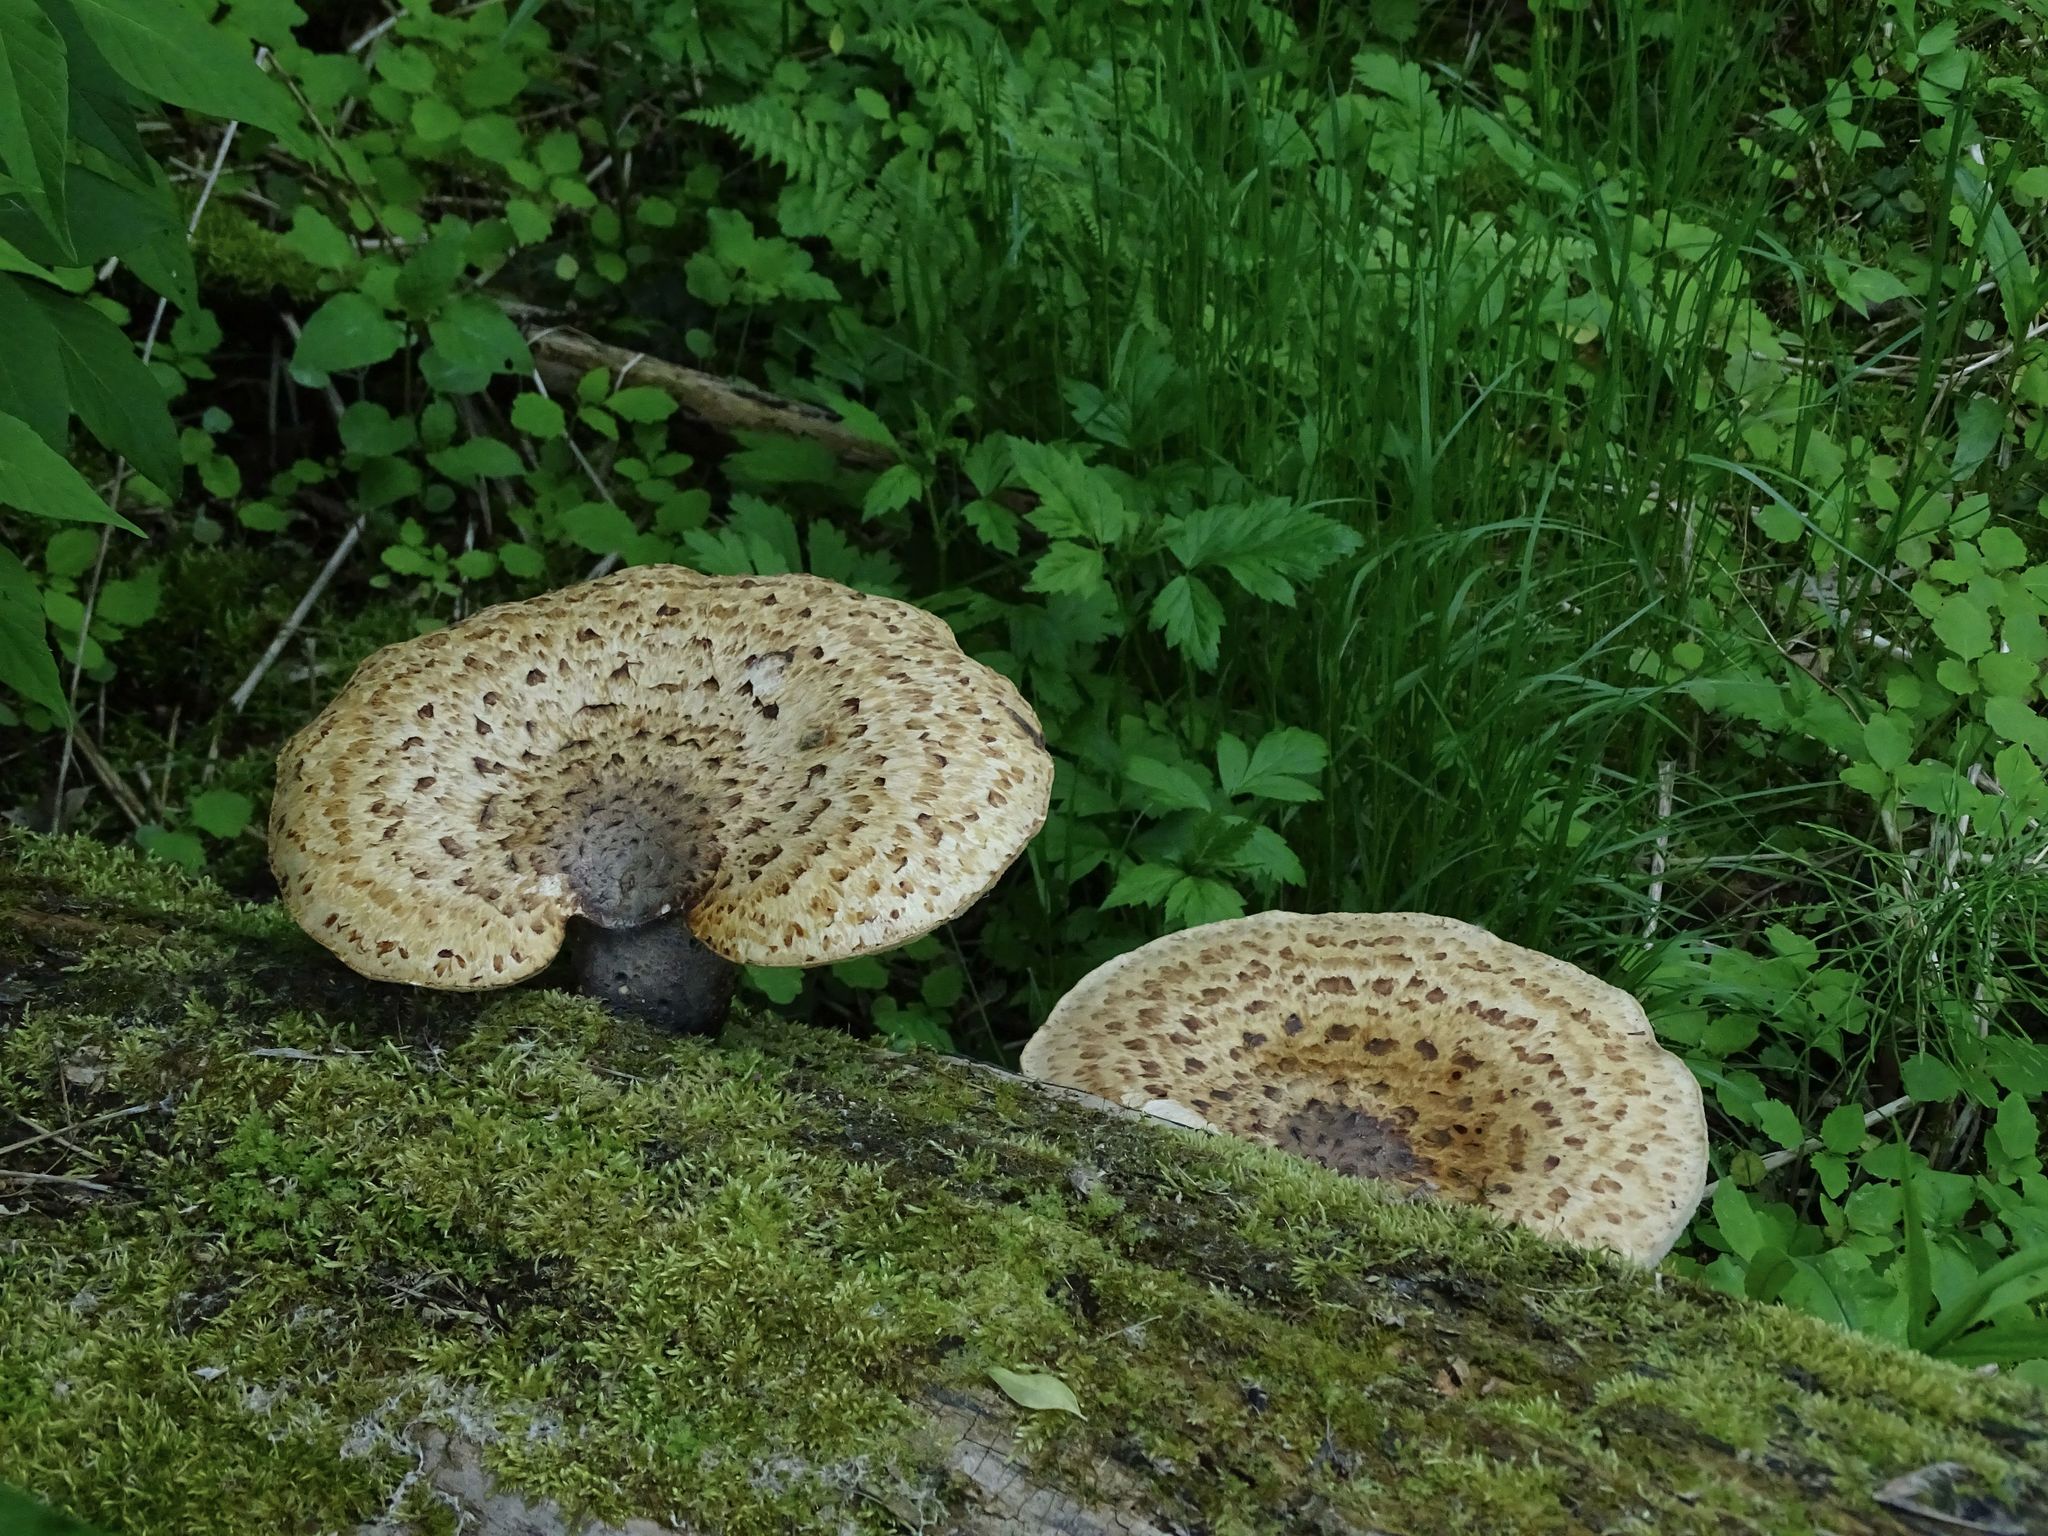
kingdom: Fungi
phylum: Basidiomycota
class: Agaricomycetes
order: Polyporales
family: Polyporaceae
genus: Cerioporus
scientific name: Cerioporus squamosus
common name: Dryad's saddle
